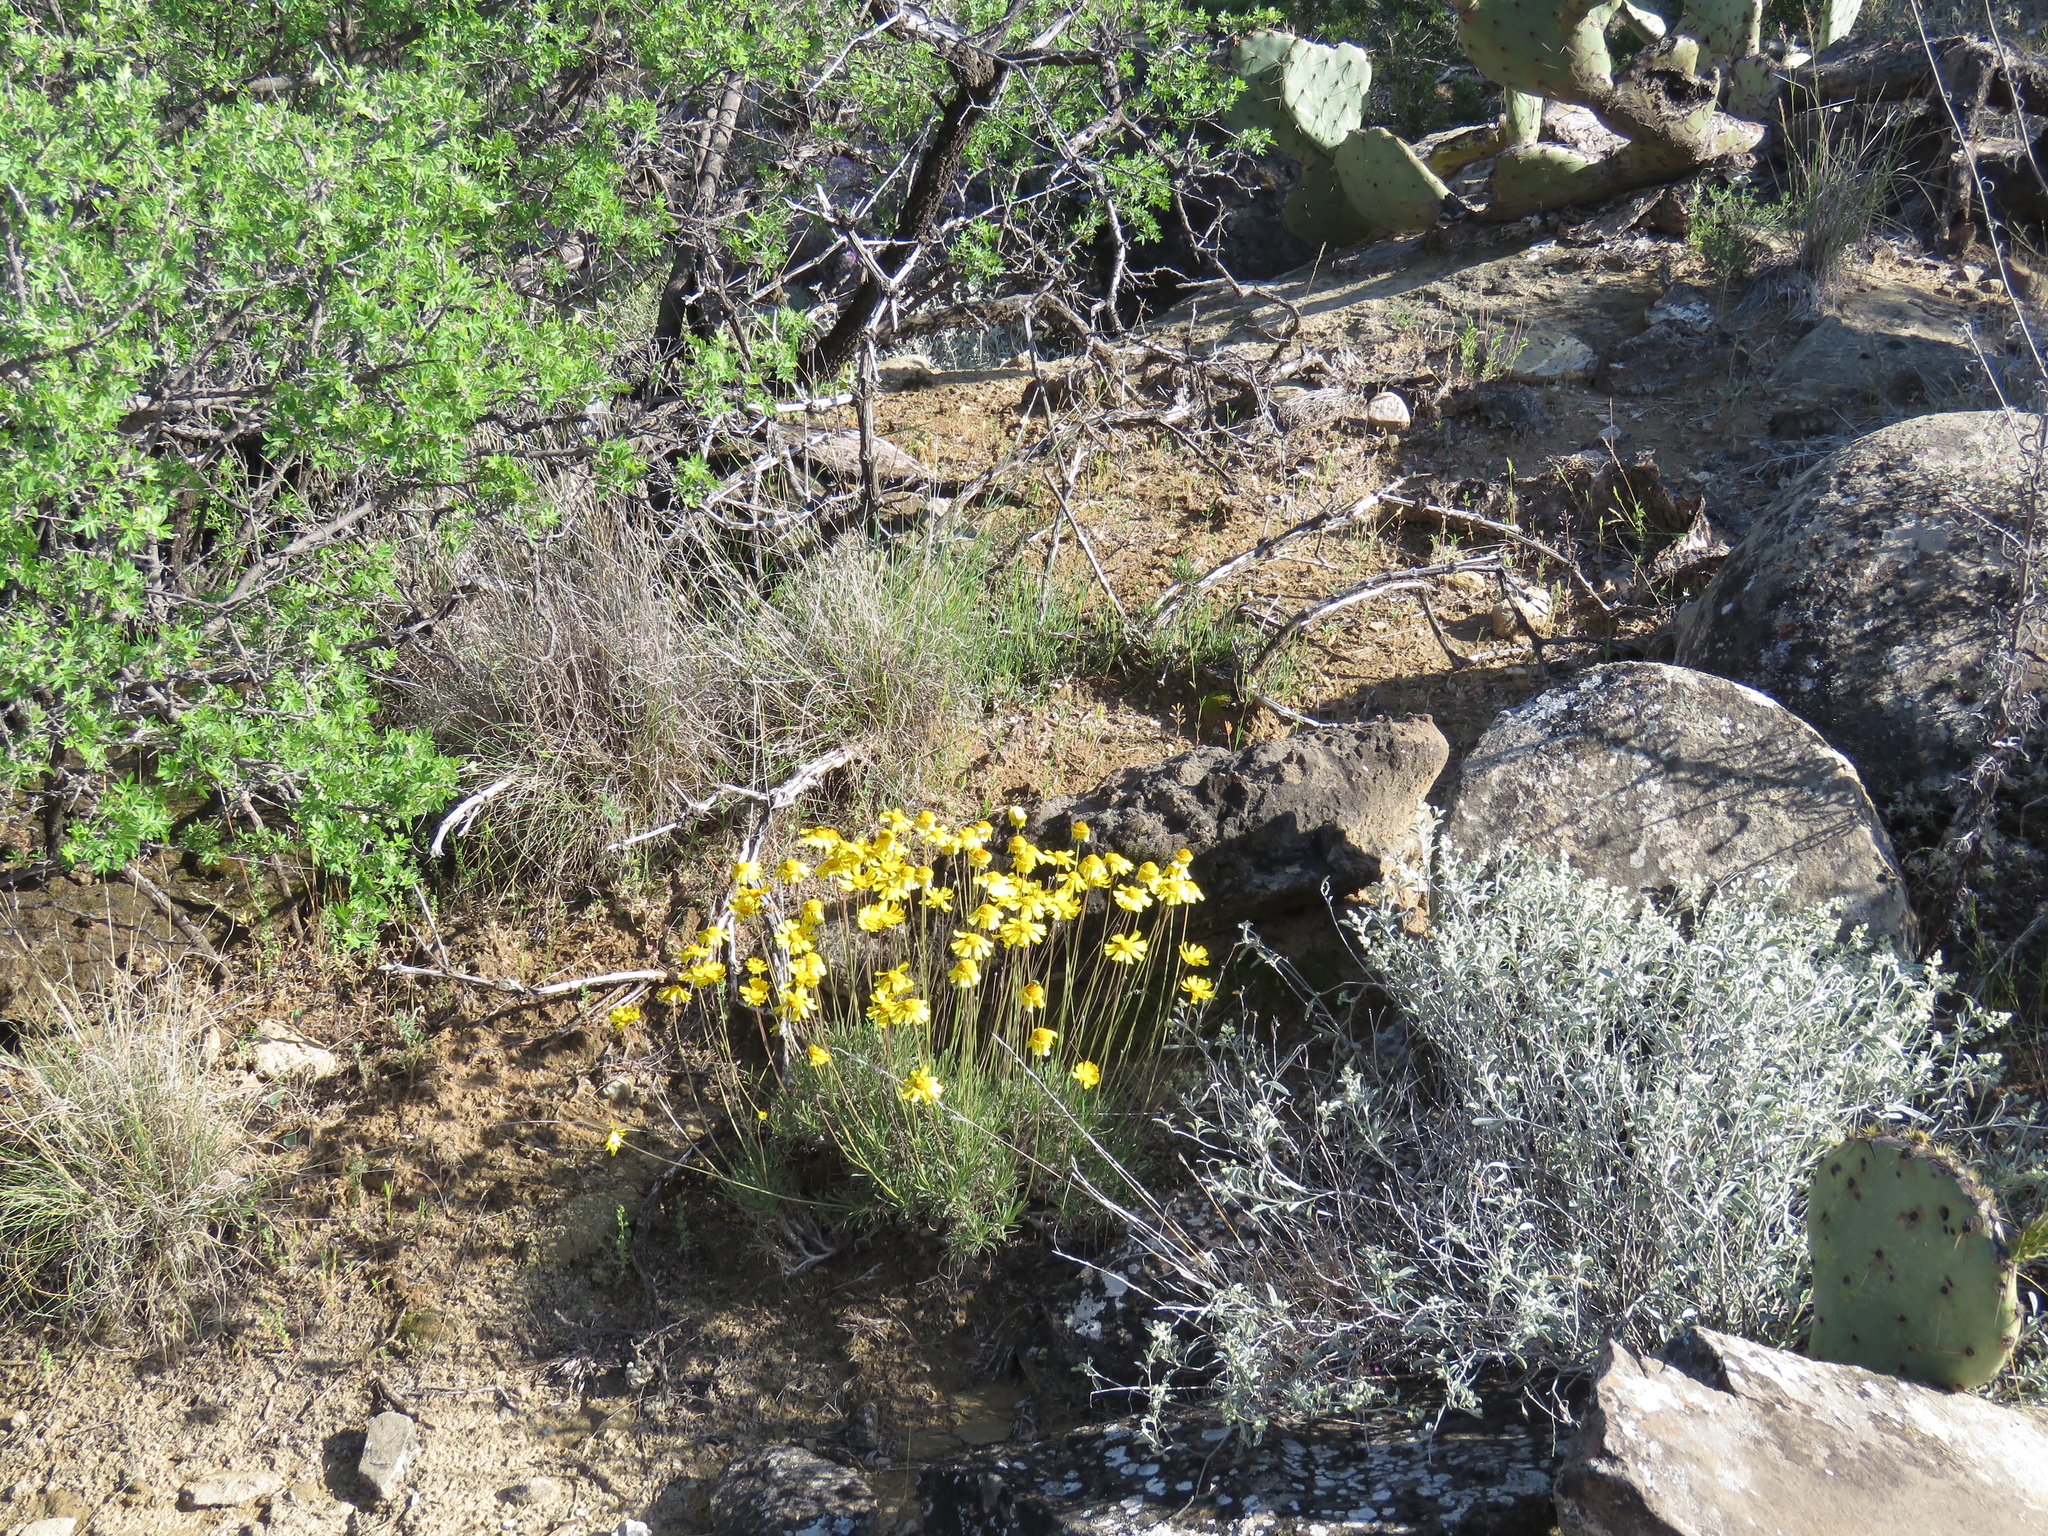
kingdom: Plantae
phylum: Tracheophyta
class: Magnoliopsida
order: Asterales
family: Asteraceae
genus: Tetraneuris
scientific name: Tetraneuris scaposa
